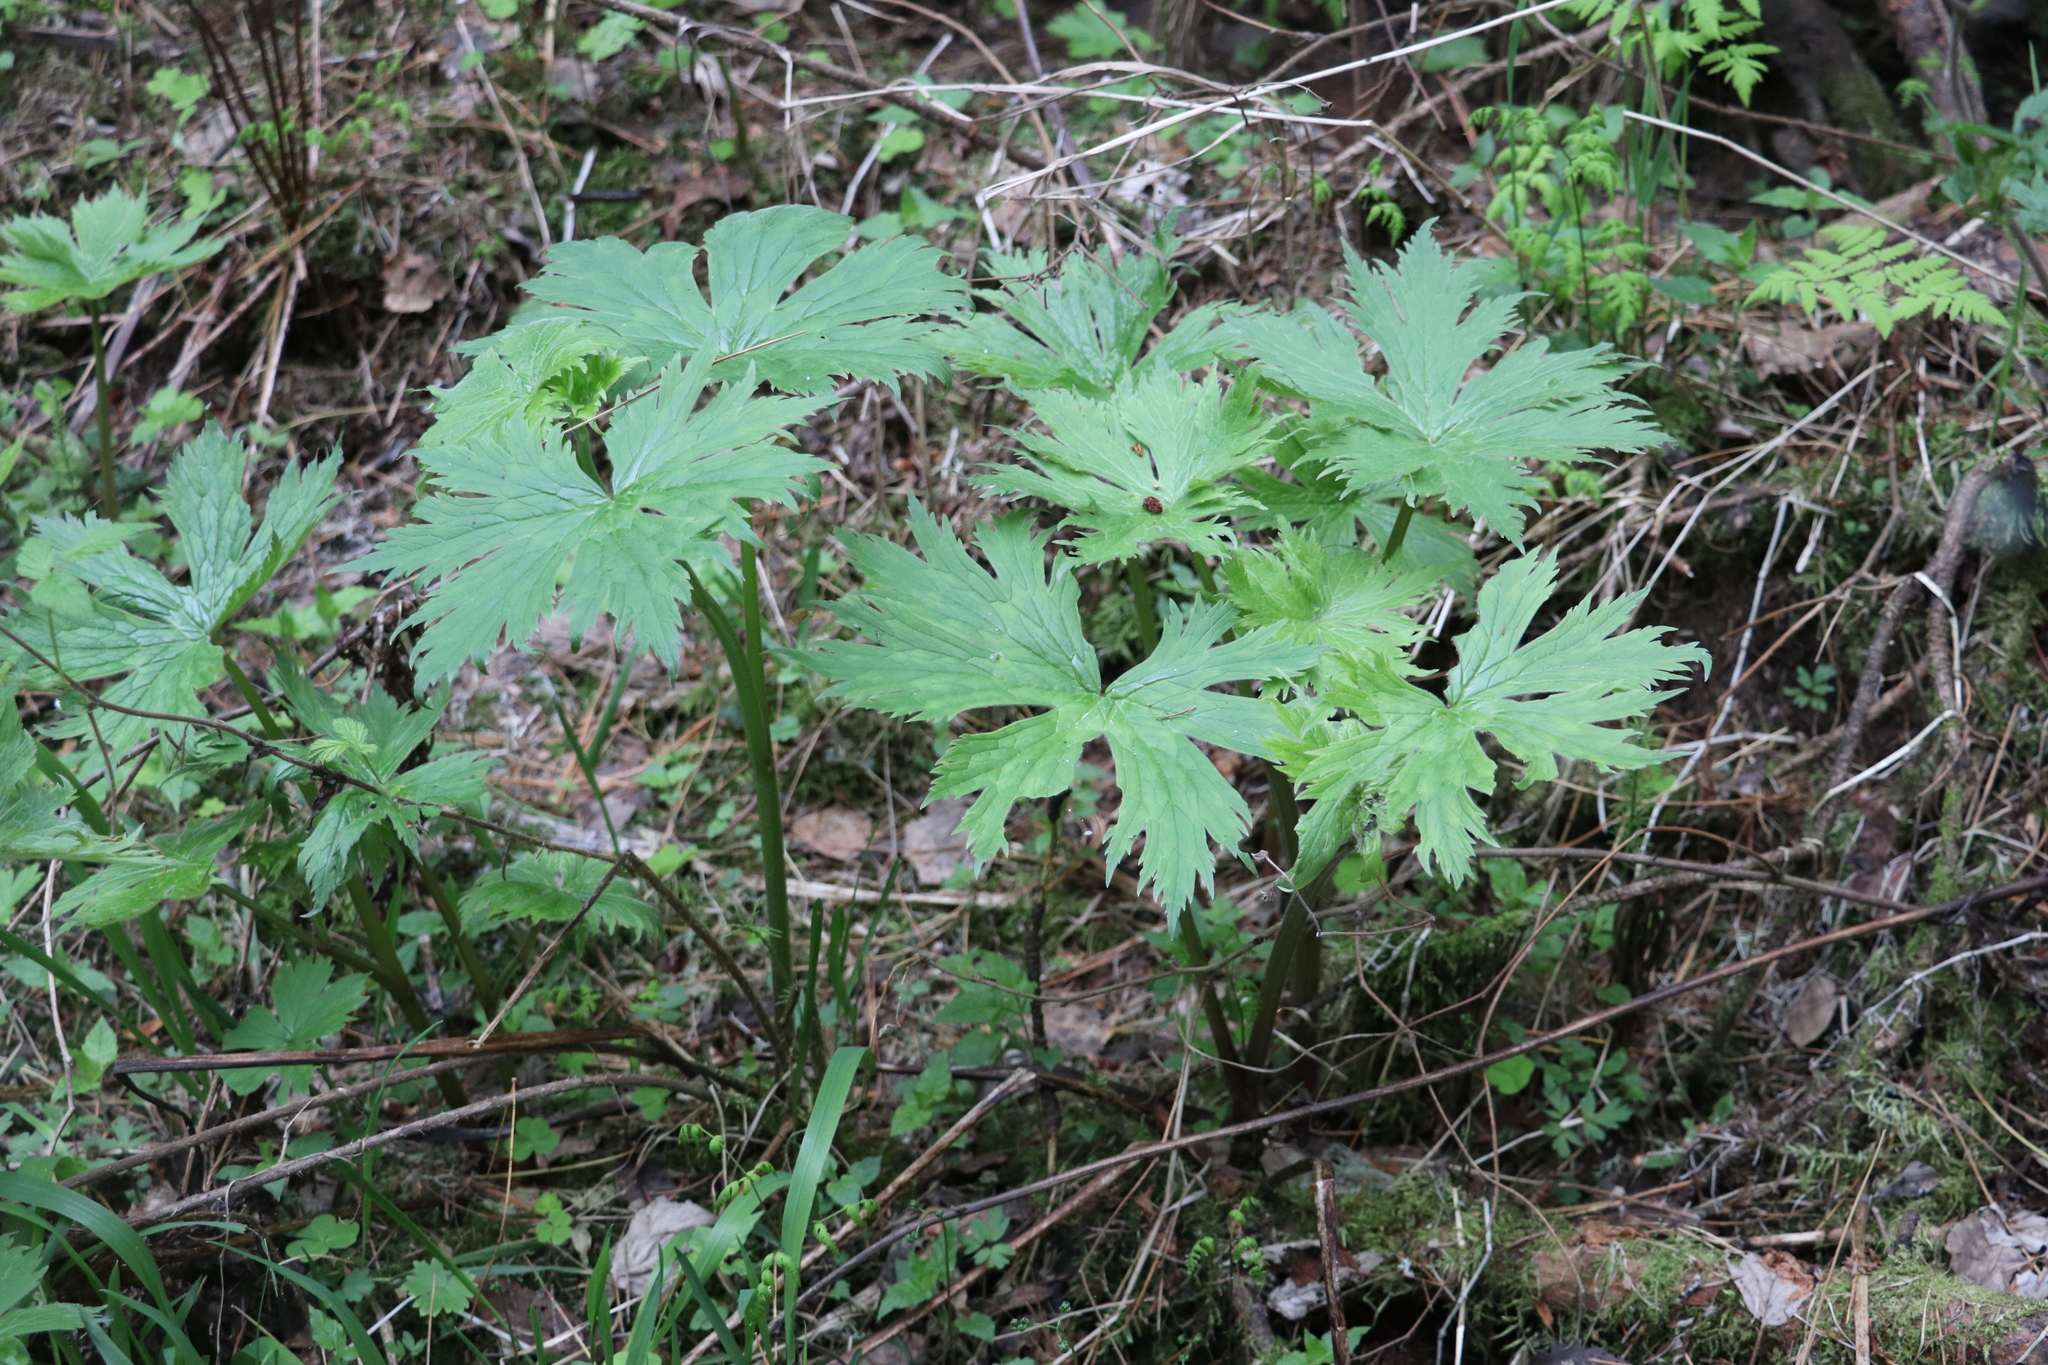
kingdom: Plantae
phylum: Tracheophyta
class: Magnoliopsida
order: Ranunculales
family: Ranunculaceae
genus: Aconitum
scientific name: Aconitum septentrionale
